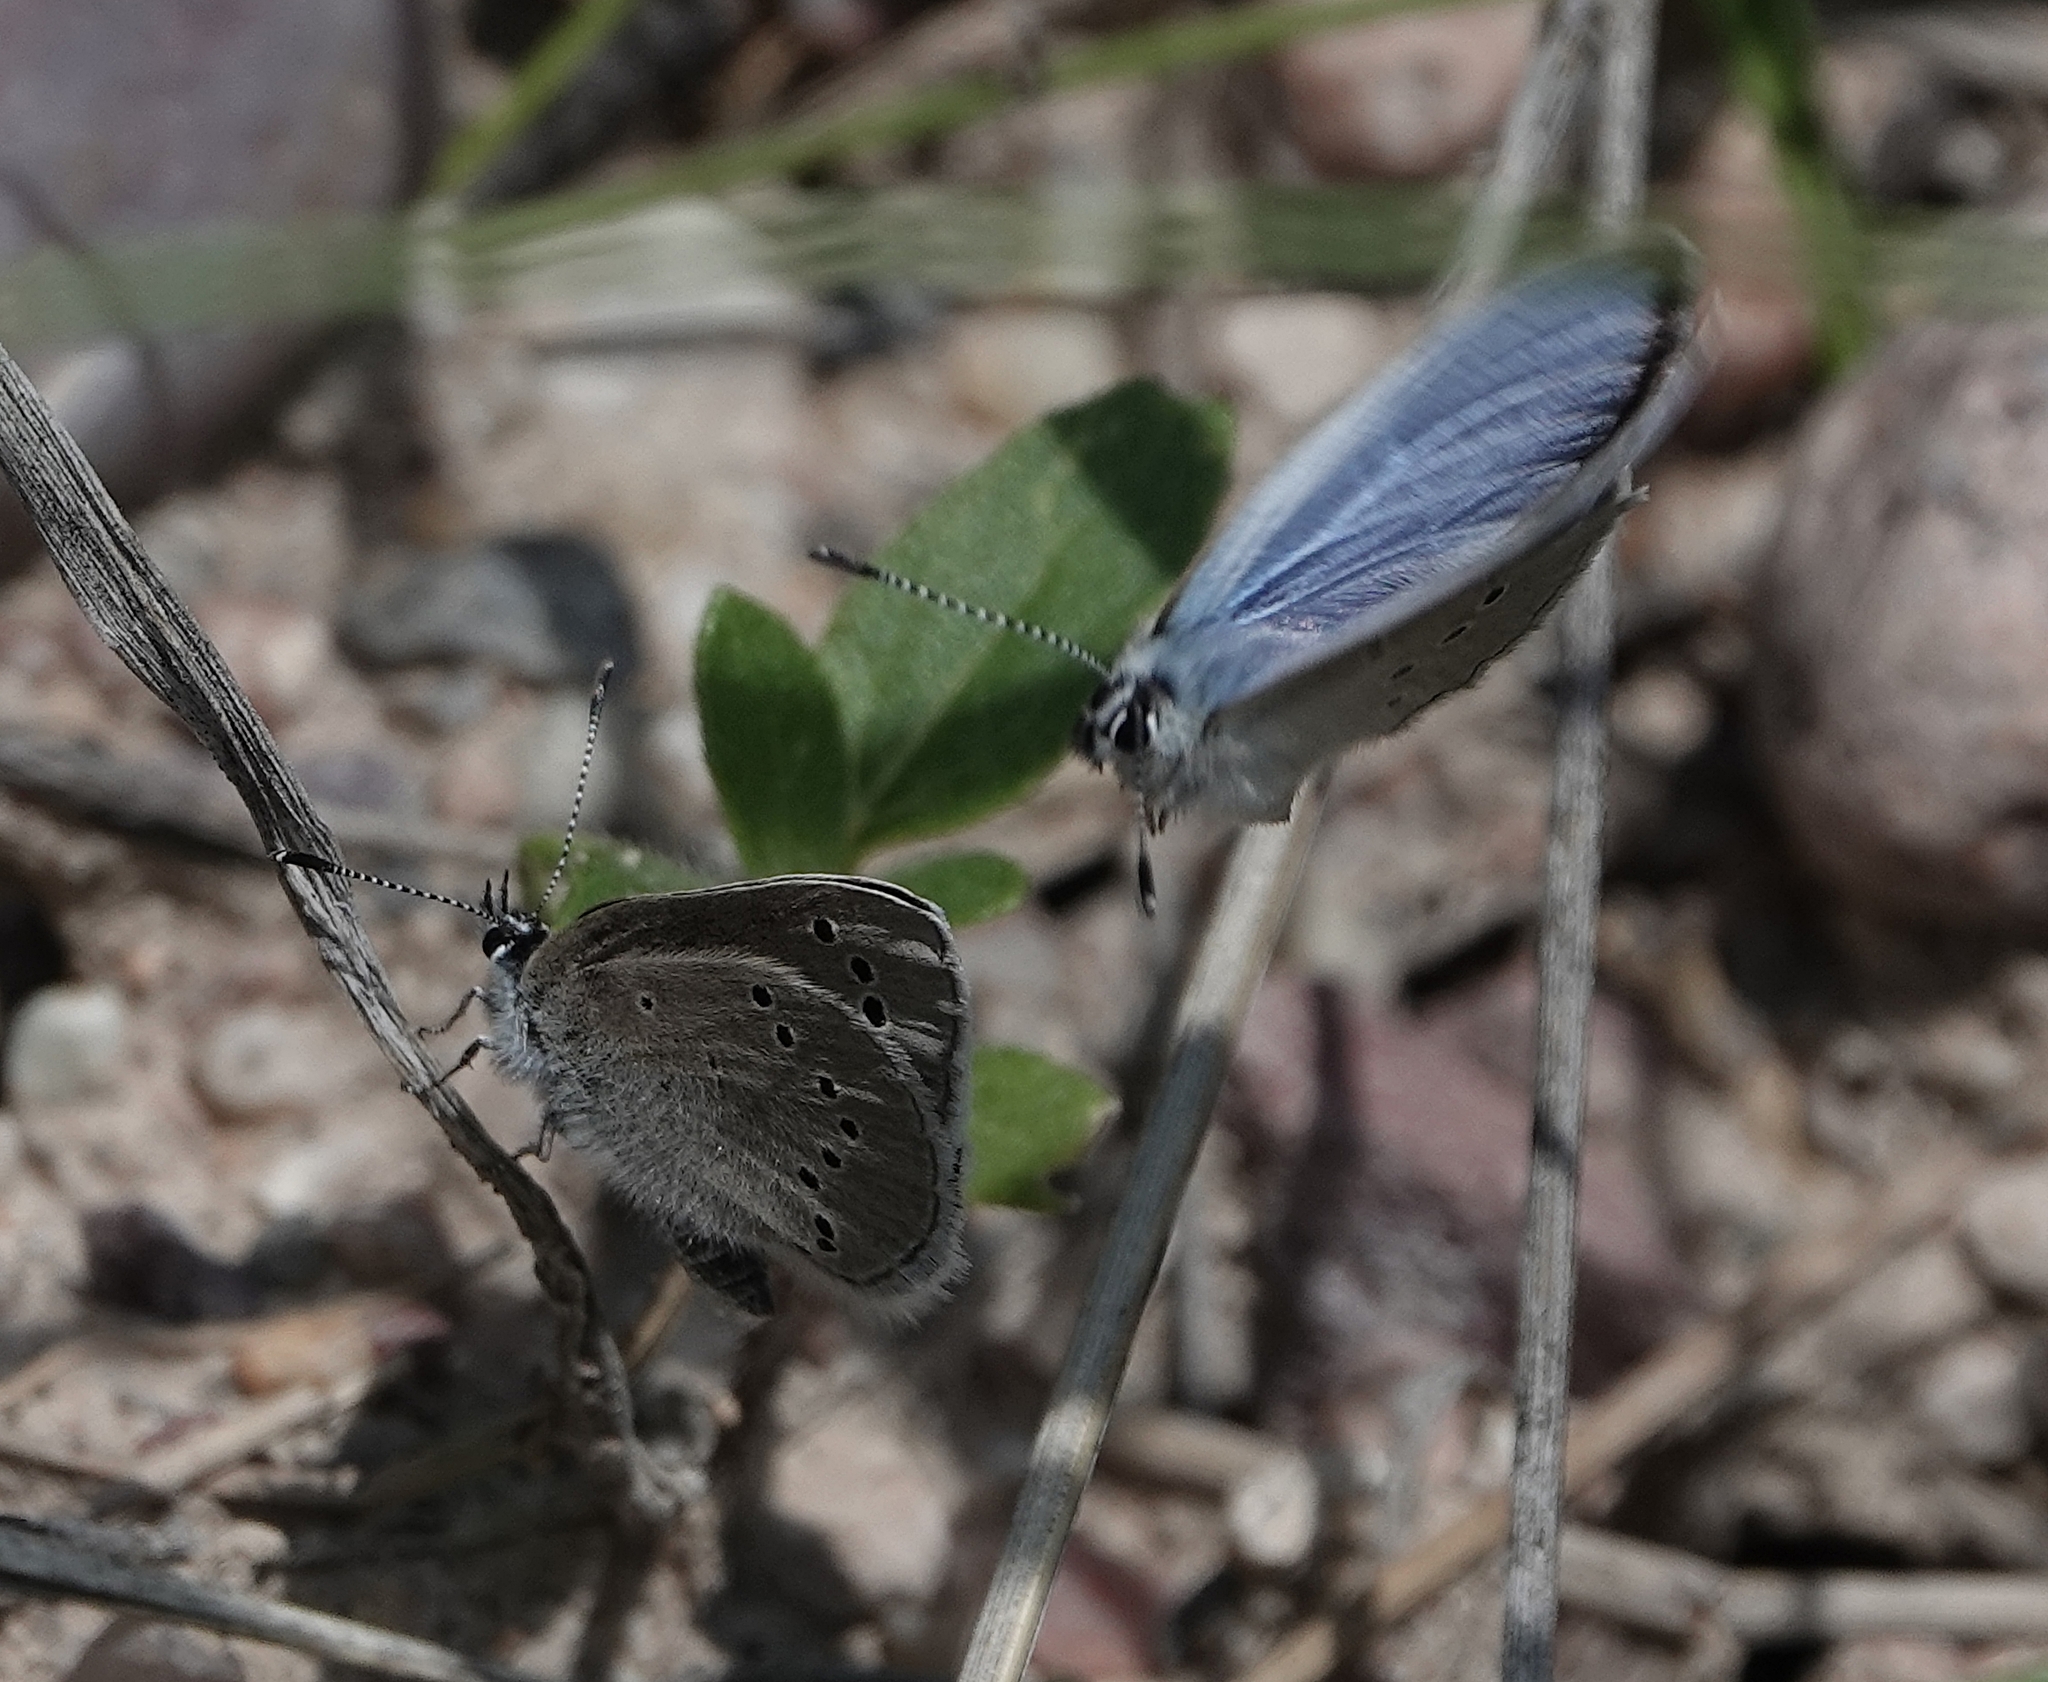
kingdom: Animalia
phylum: Arthropoda
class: Insecta
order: Lepidoptera
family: Lycaenidae
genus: Glaucopsyche
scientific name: Glaucopsyche lygdamus
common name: Silvery blue
